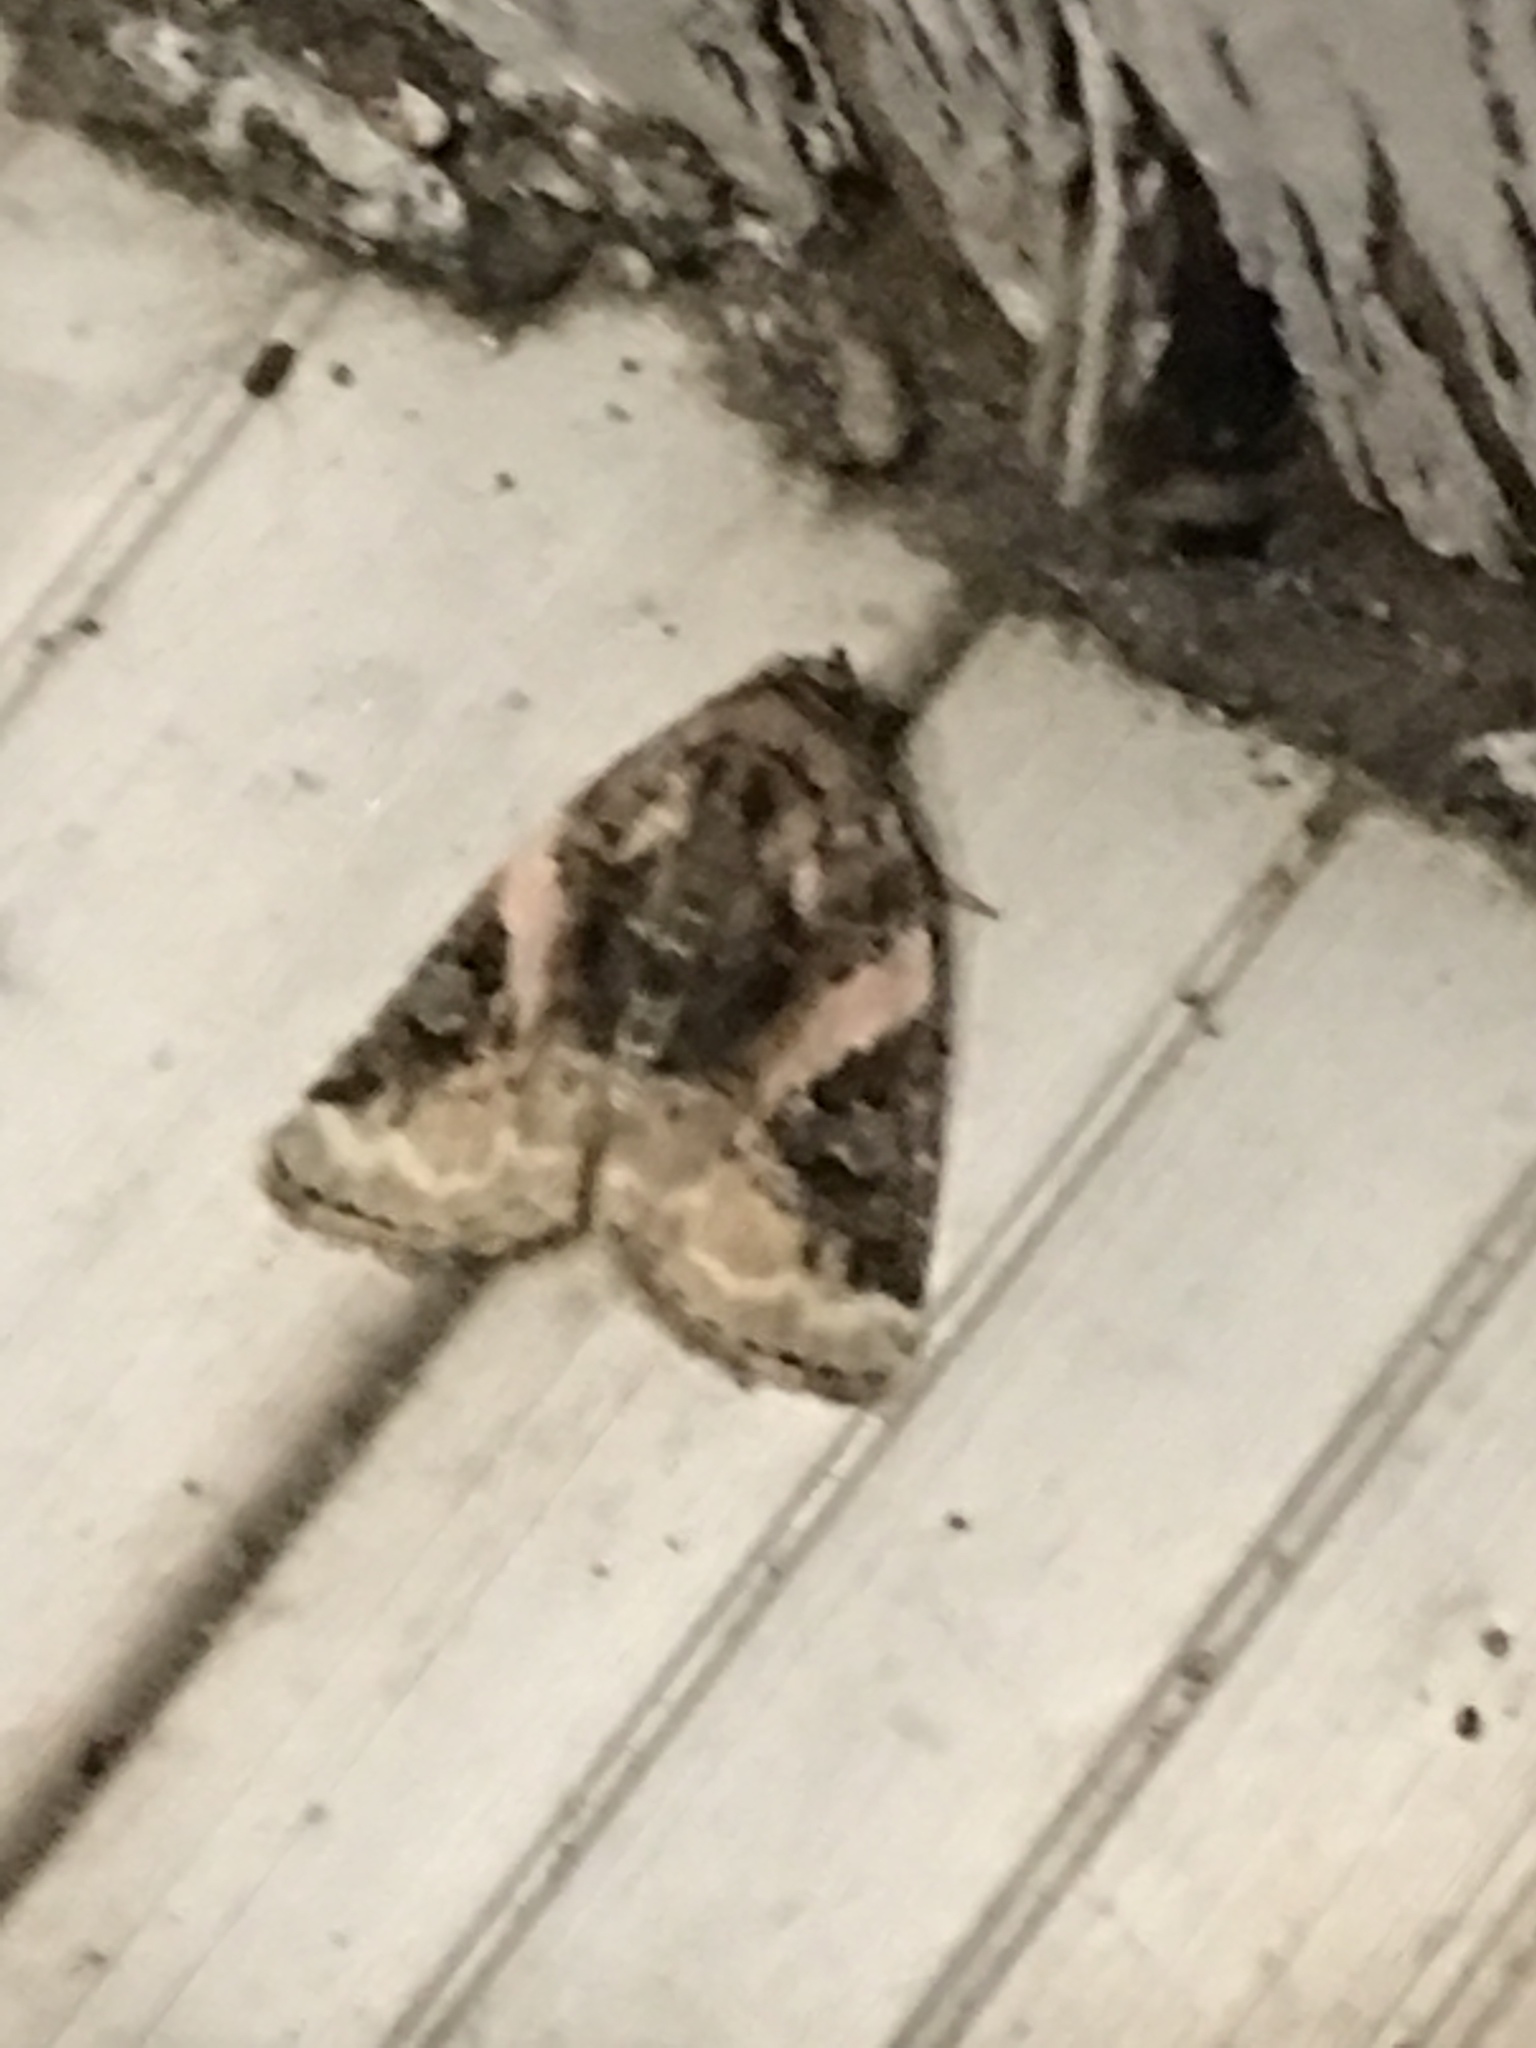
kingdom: Animalia
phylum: Arthropoda
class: Insecta
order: Lepidoptera
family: Noctuidae
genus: Pseudeustrotia
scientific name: Pseudeustrotia carneola
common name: Pink-barred lithacodia moth
